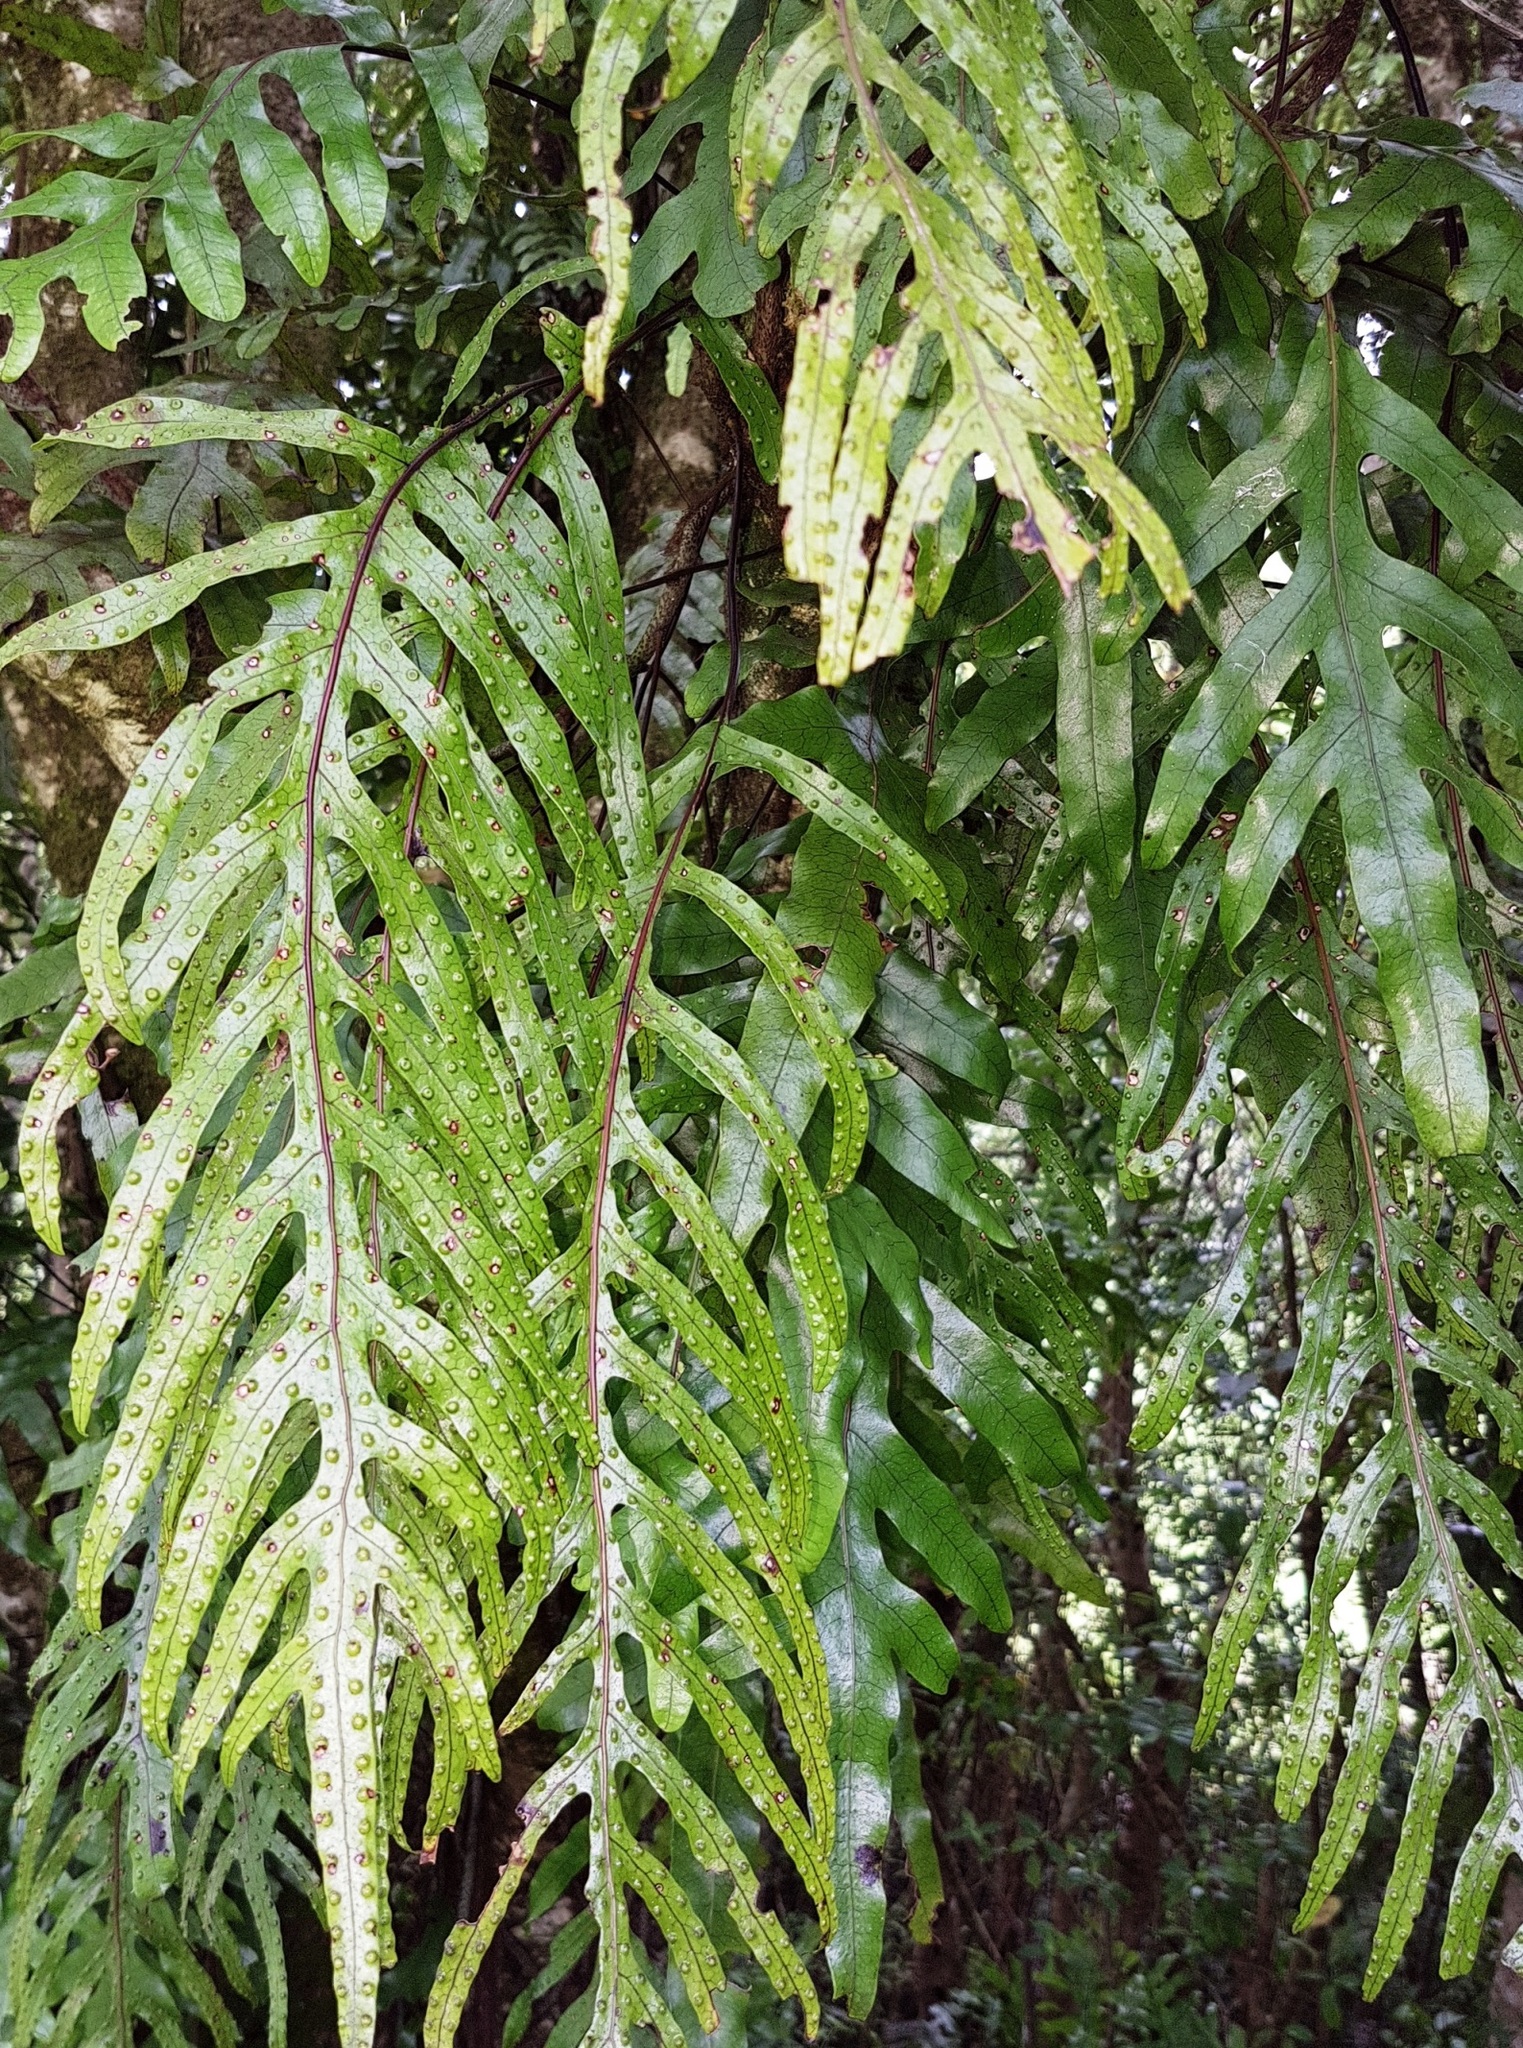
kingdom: Plantae
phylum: Tracheophyta
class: Polypodiopsida
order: Polypodiales
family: Polypodiaceae
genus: Lecanopteris
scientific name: Lecanopteris pustulata
